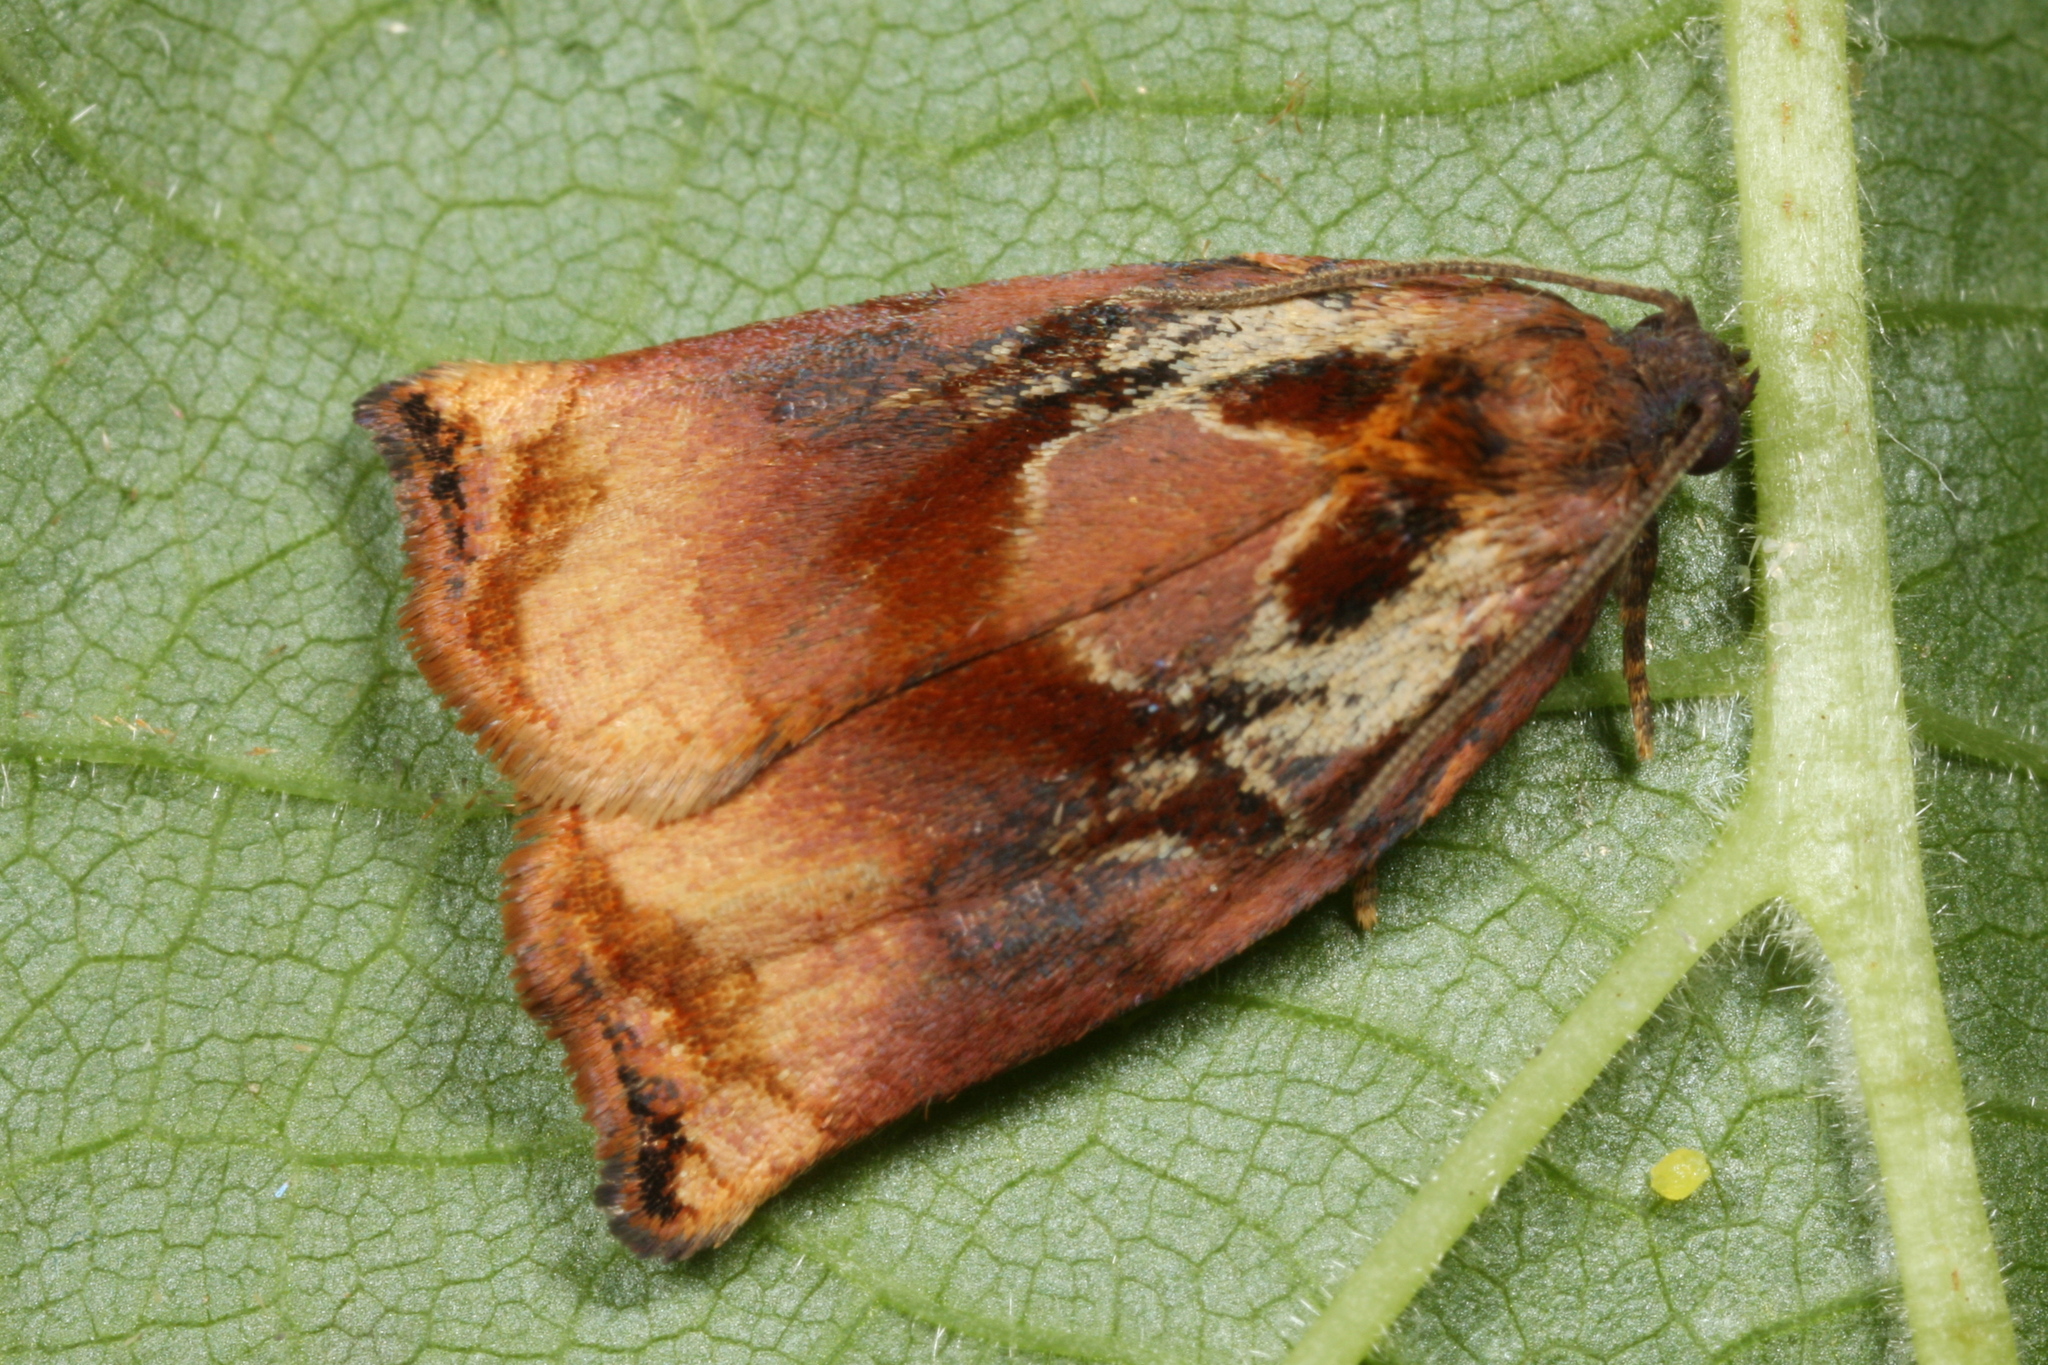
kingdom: Animalia
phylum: Arthropoda
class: Insecta
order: Lepidoptera
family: Tortricidae
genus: Archips
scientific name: Archips podana
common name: Large fruit-tree tortrix
